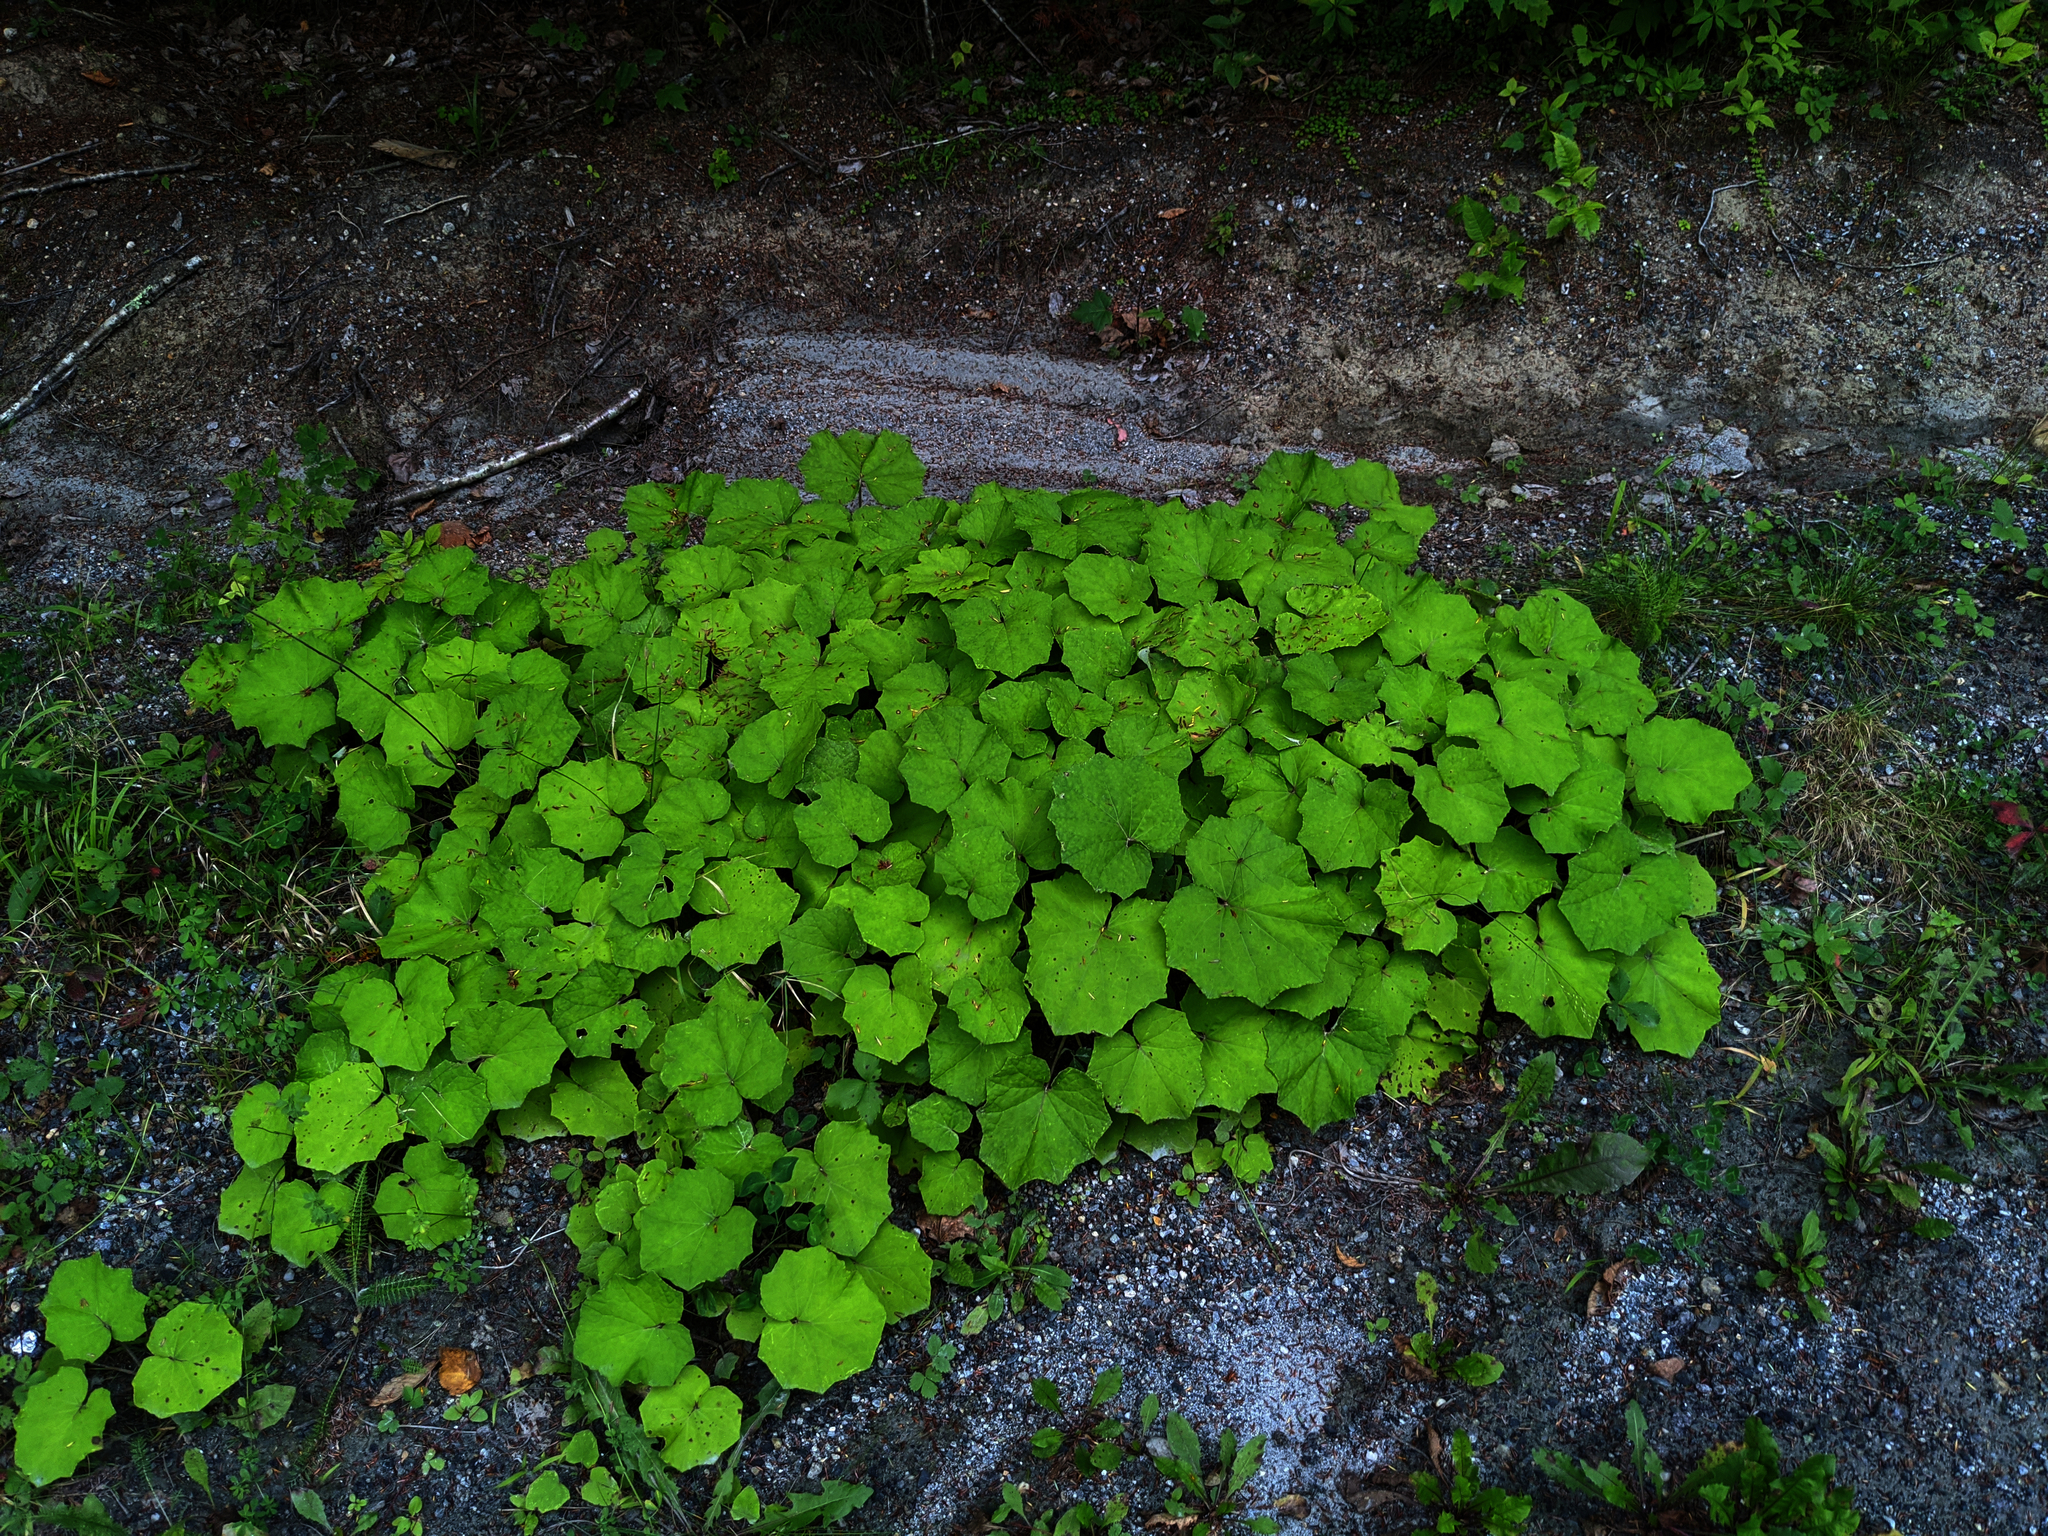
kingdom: Plantae
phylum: Tracheophyta
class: Magnoliopsida
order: Asterales
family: Asteraceae
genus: Tussilago
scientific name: Tussilago farfara
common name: Coltsfoot
